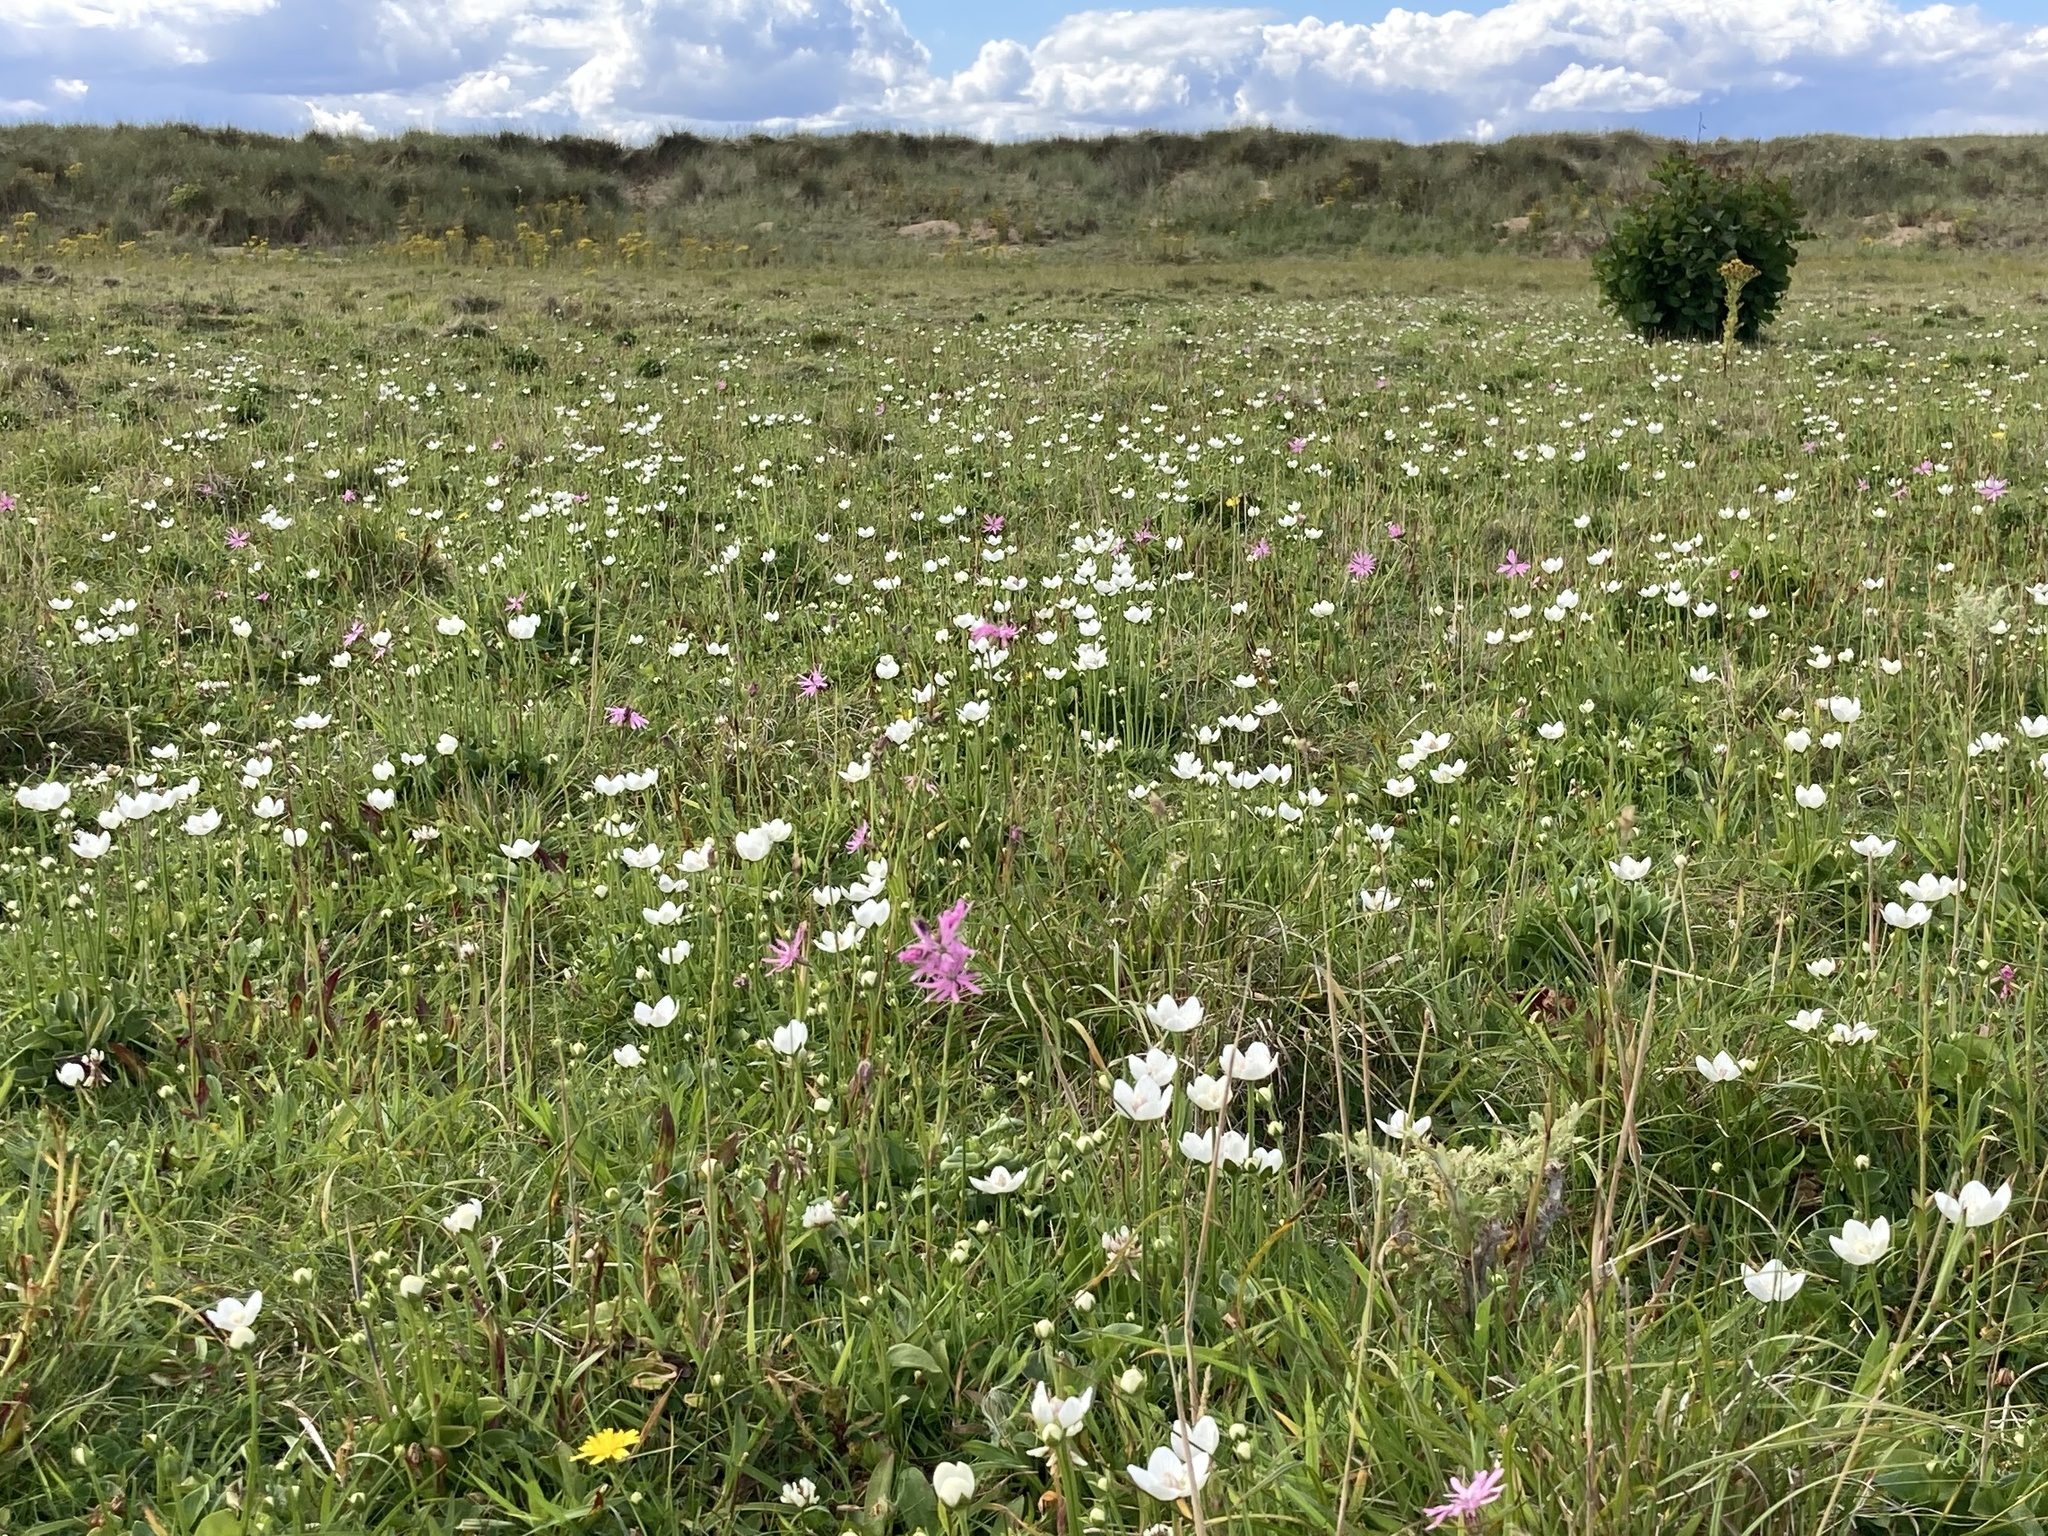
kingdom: Plantae
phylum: Tracheophyta
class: Magnoliopsida
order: Celastrales
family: Parnassiaceae
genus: Parnassia
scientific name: Parnassia palustris
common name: Grass-of-parnassus
